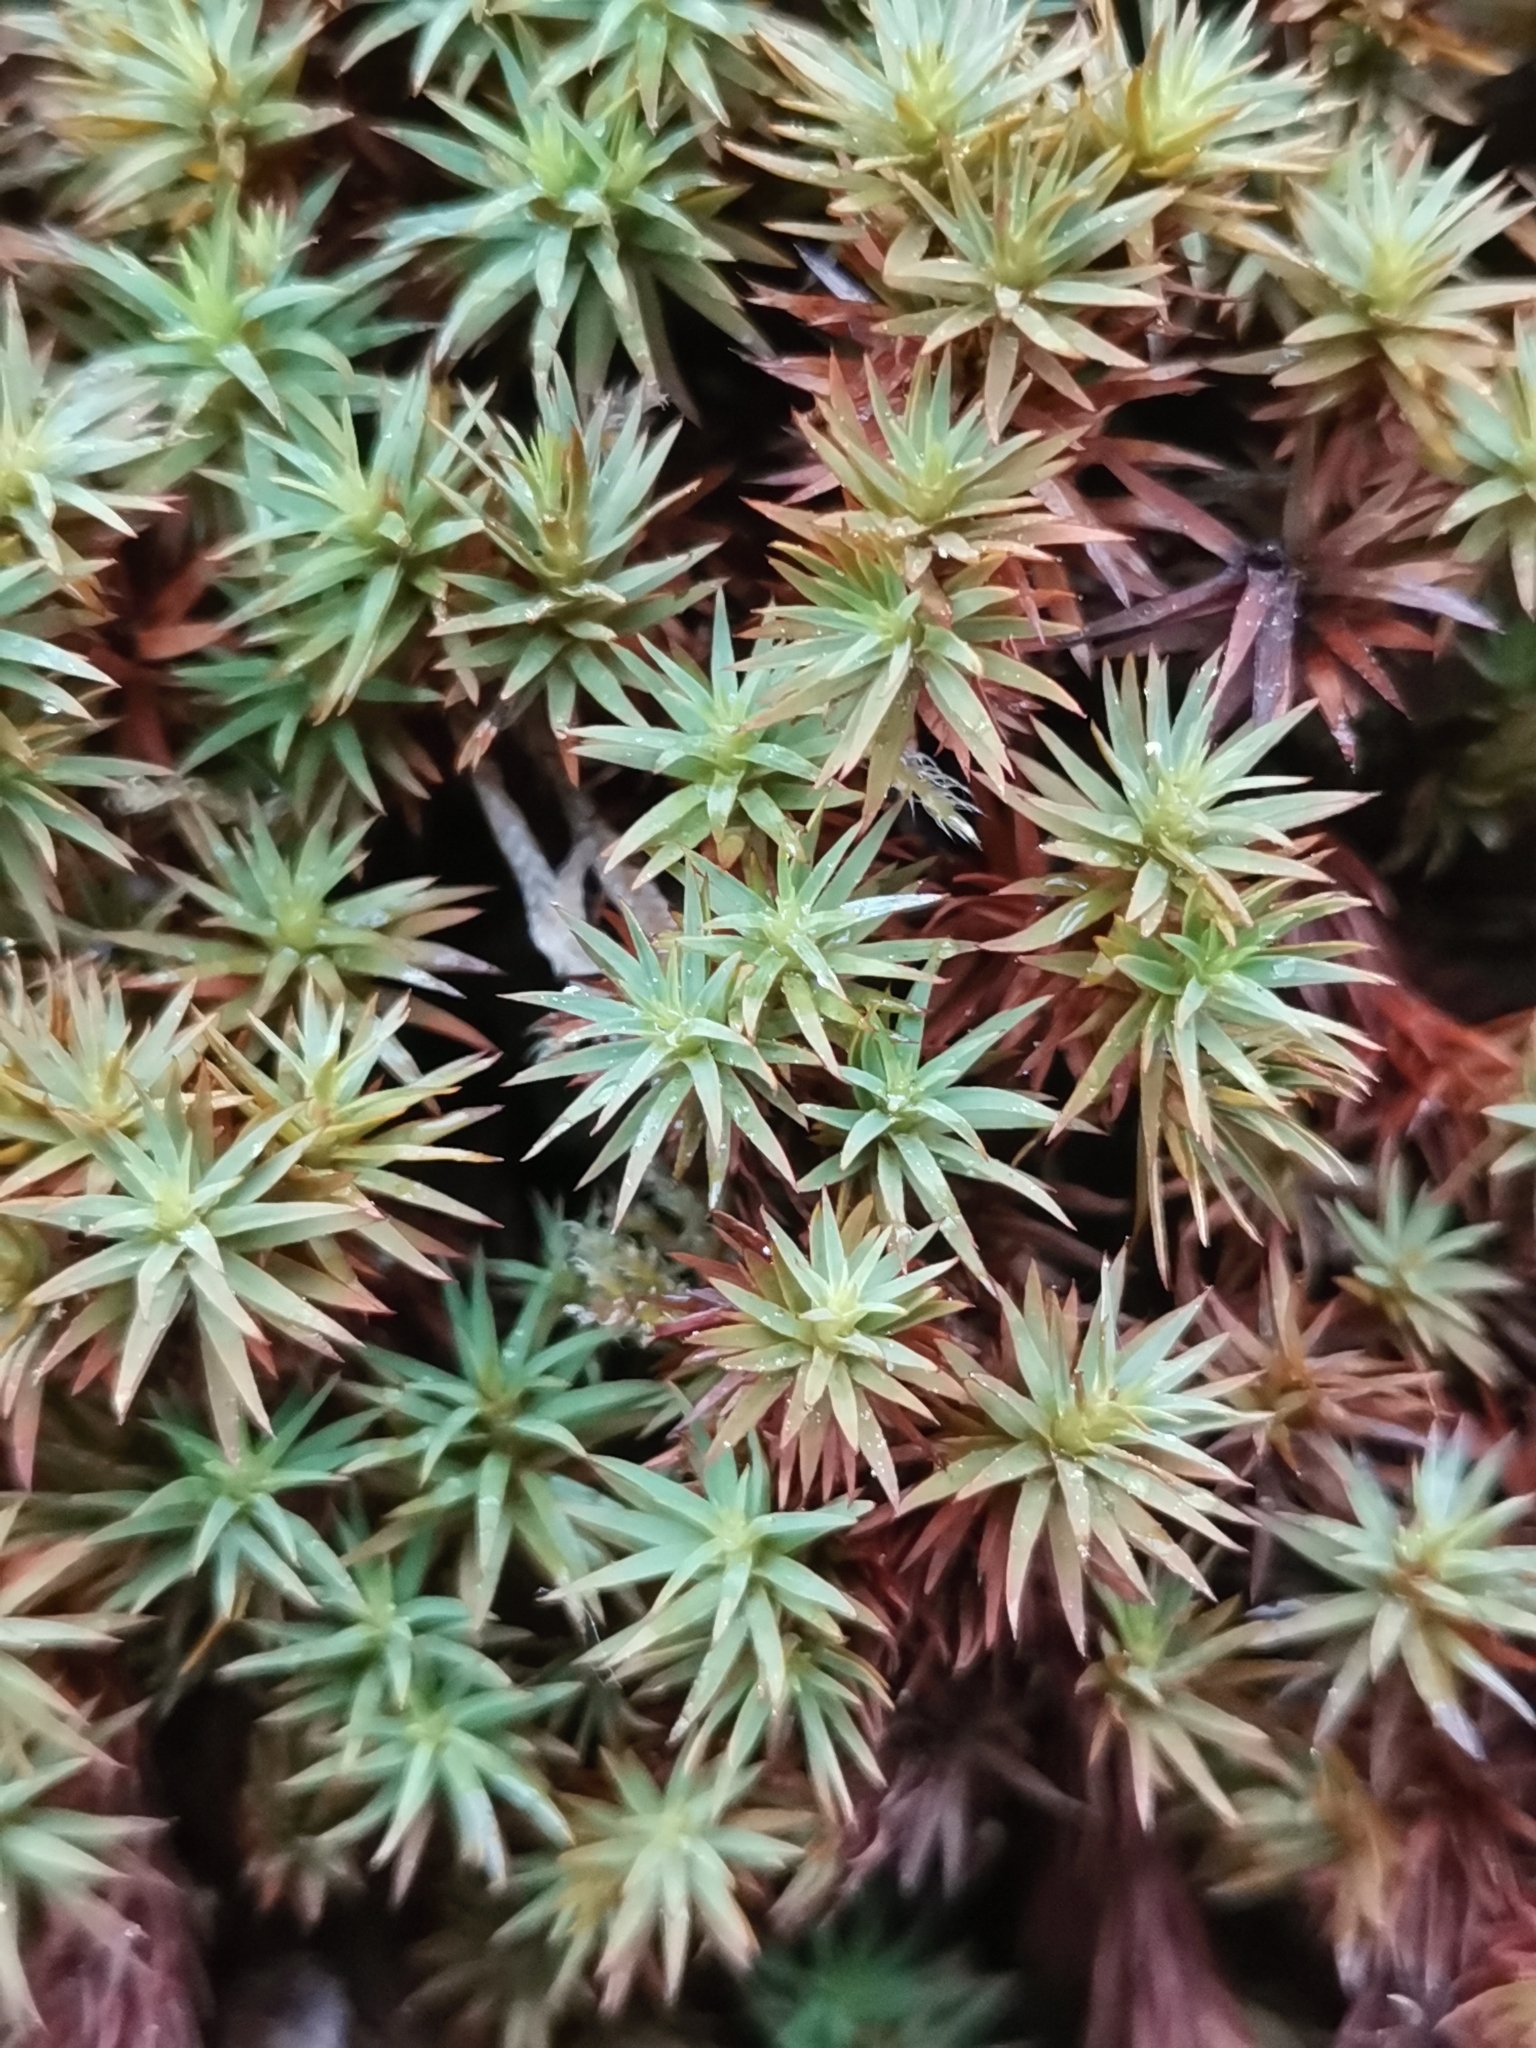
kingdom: Plantae
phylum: Bryophyta
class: Polytrichopsida
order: Polytrichales
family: Polytrichaceae
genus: Pogonatum
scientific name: Pogonatum urnigerum
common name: Urn hair moss
